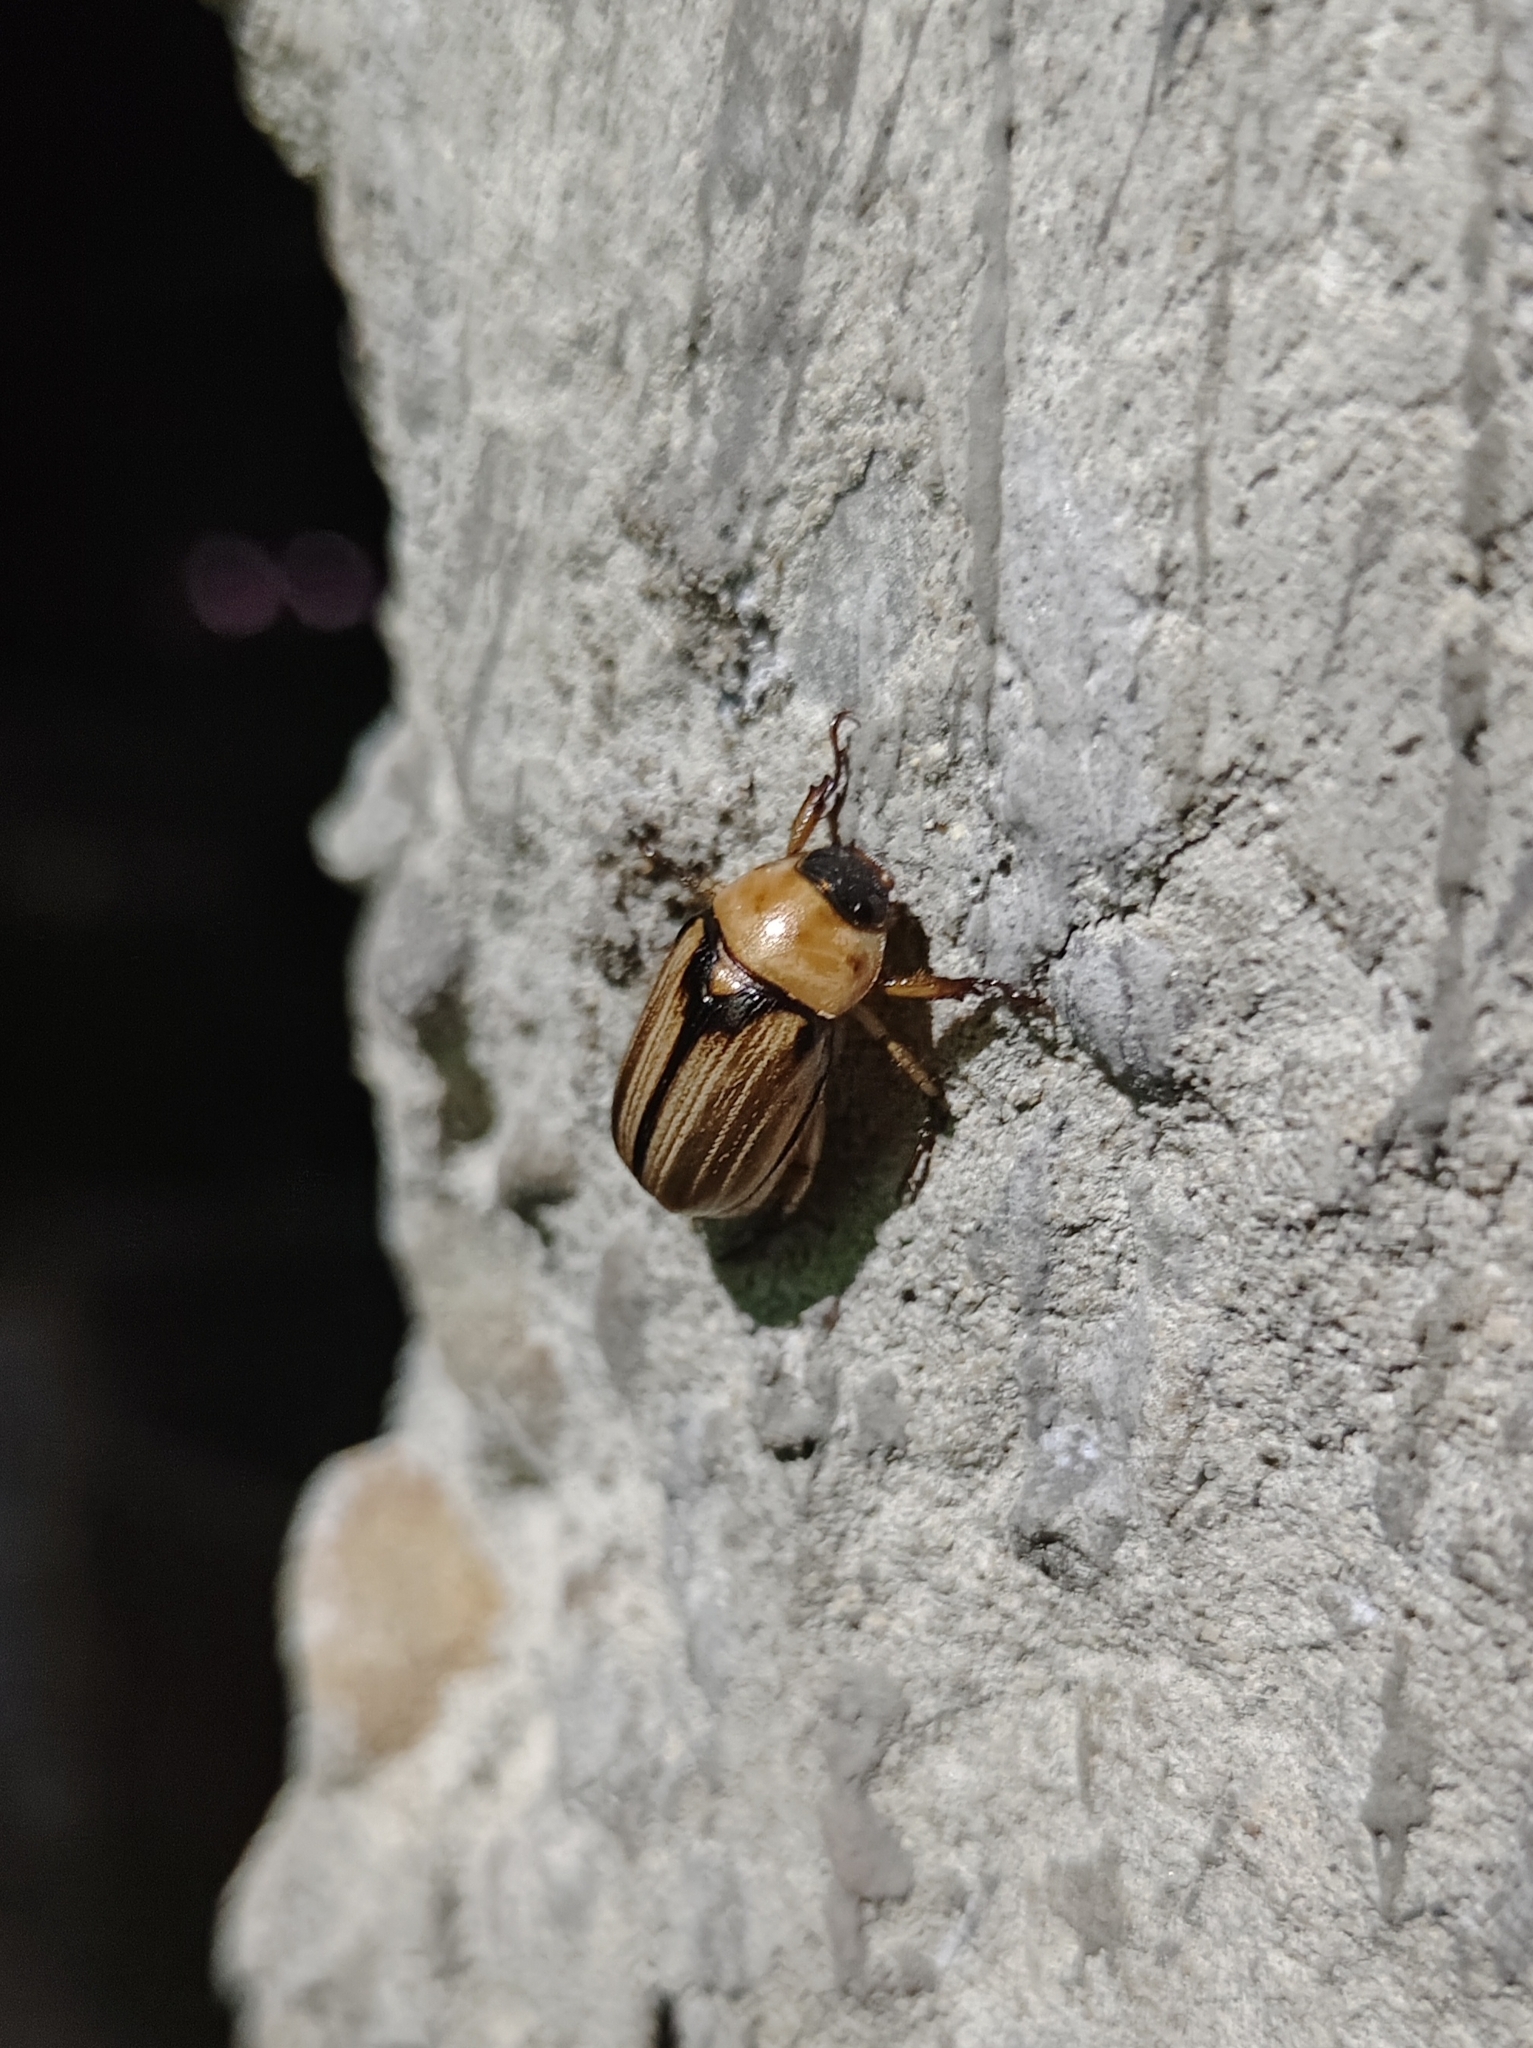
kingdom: Animalia
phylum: Arthropoda
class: Insecta
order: Coleoptera
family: Scarabaeidae
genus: Anomala
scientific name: Anomala marginipennis
